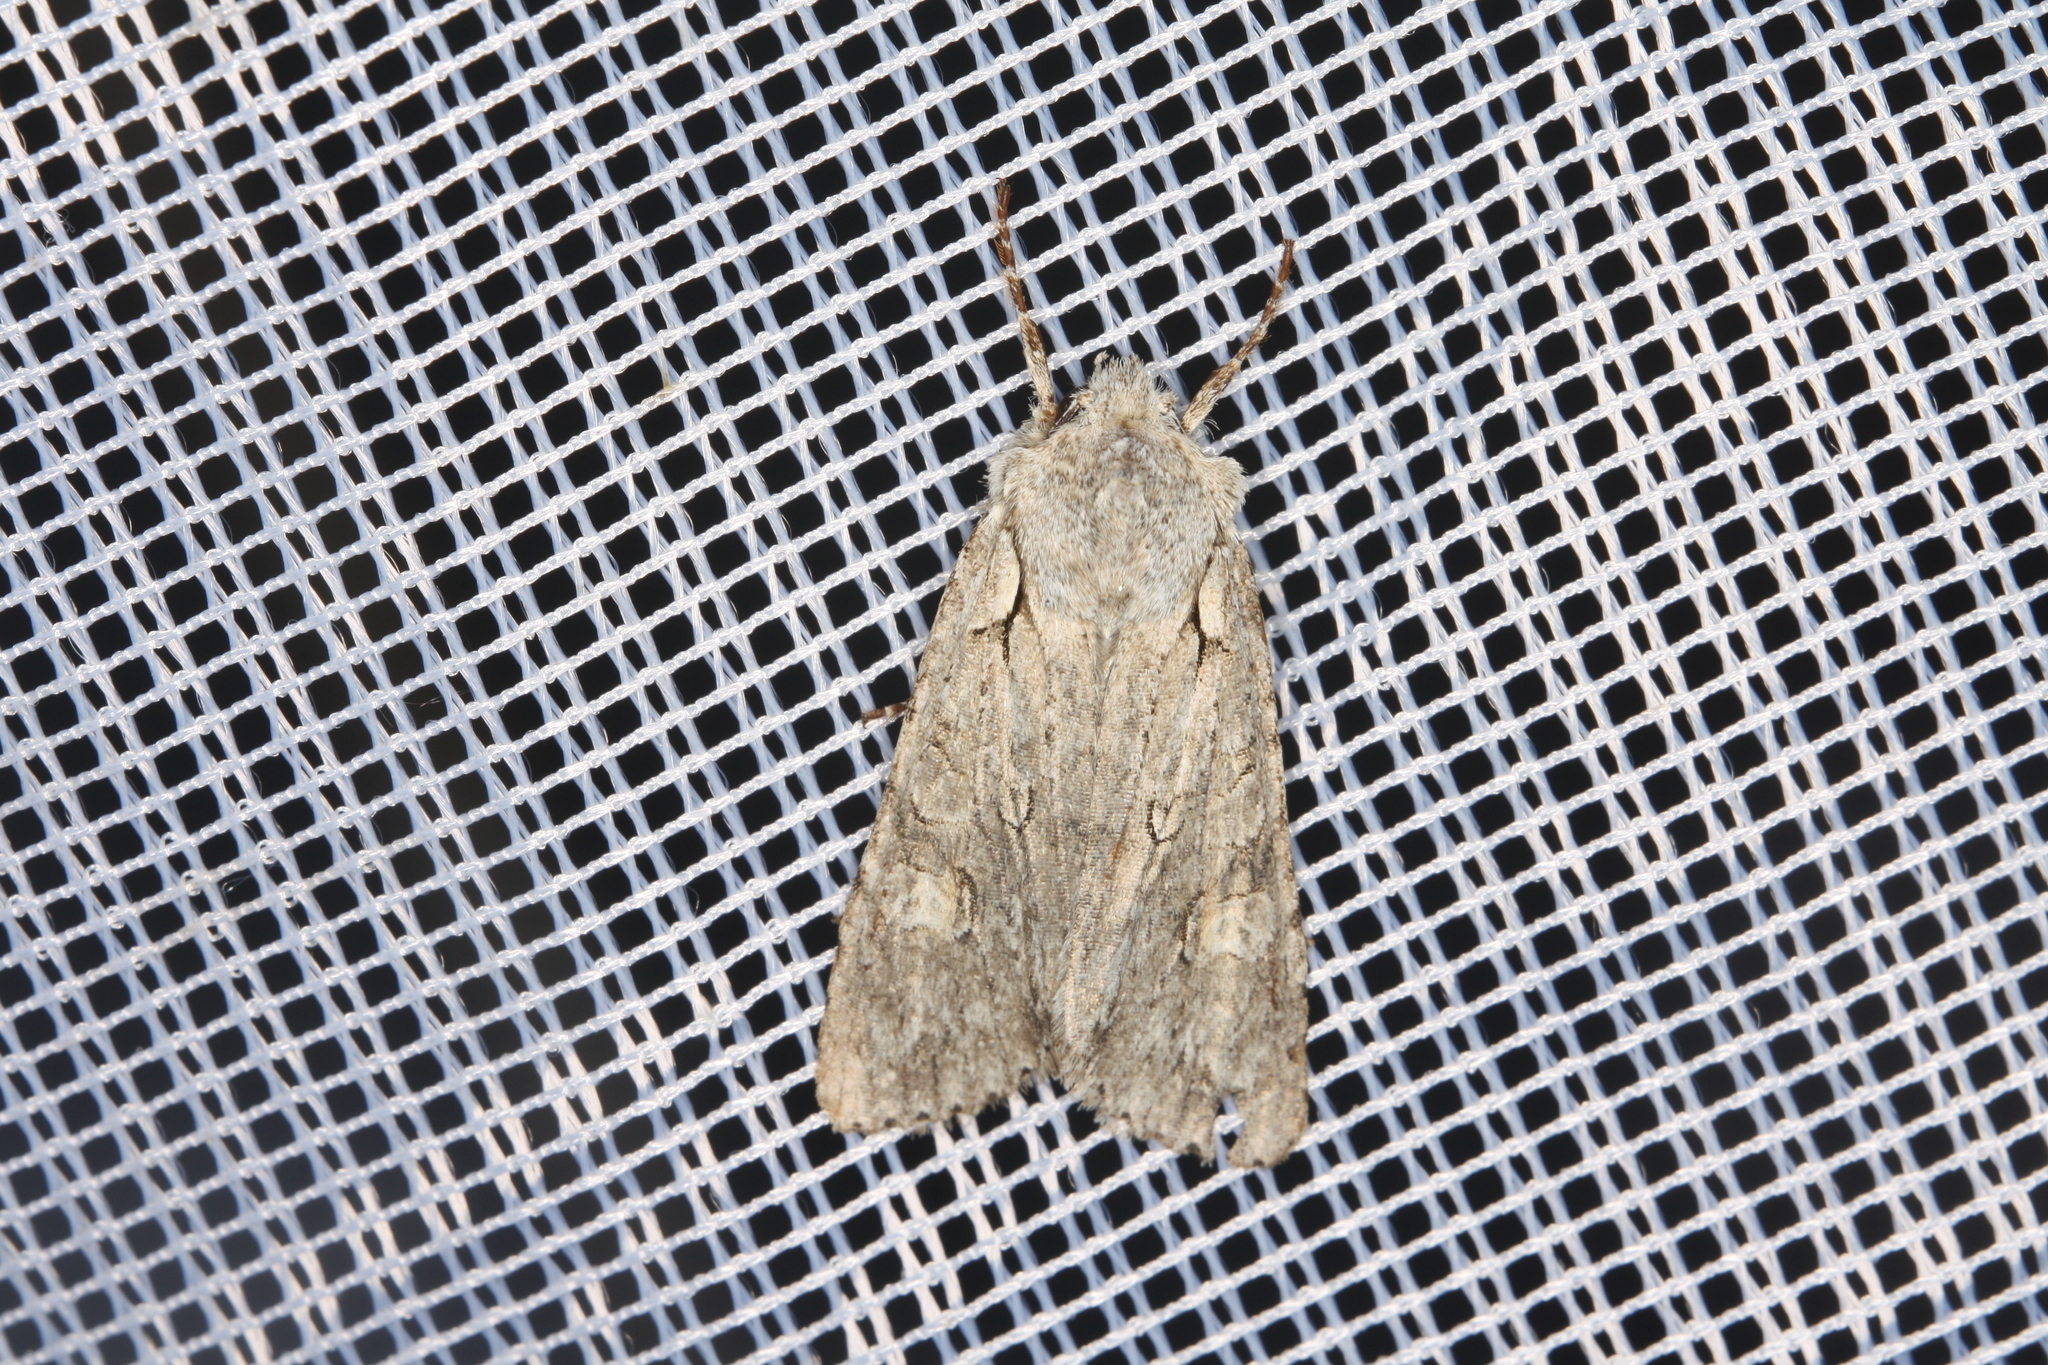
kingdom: Animalia
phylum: Arthropoda
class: Insecta
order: Lepidoptera
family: Noctuidae
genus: Lithophane
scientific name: Lithophane ornitopus
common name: Grey shoulder-knot
